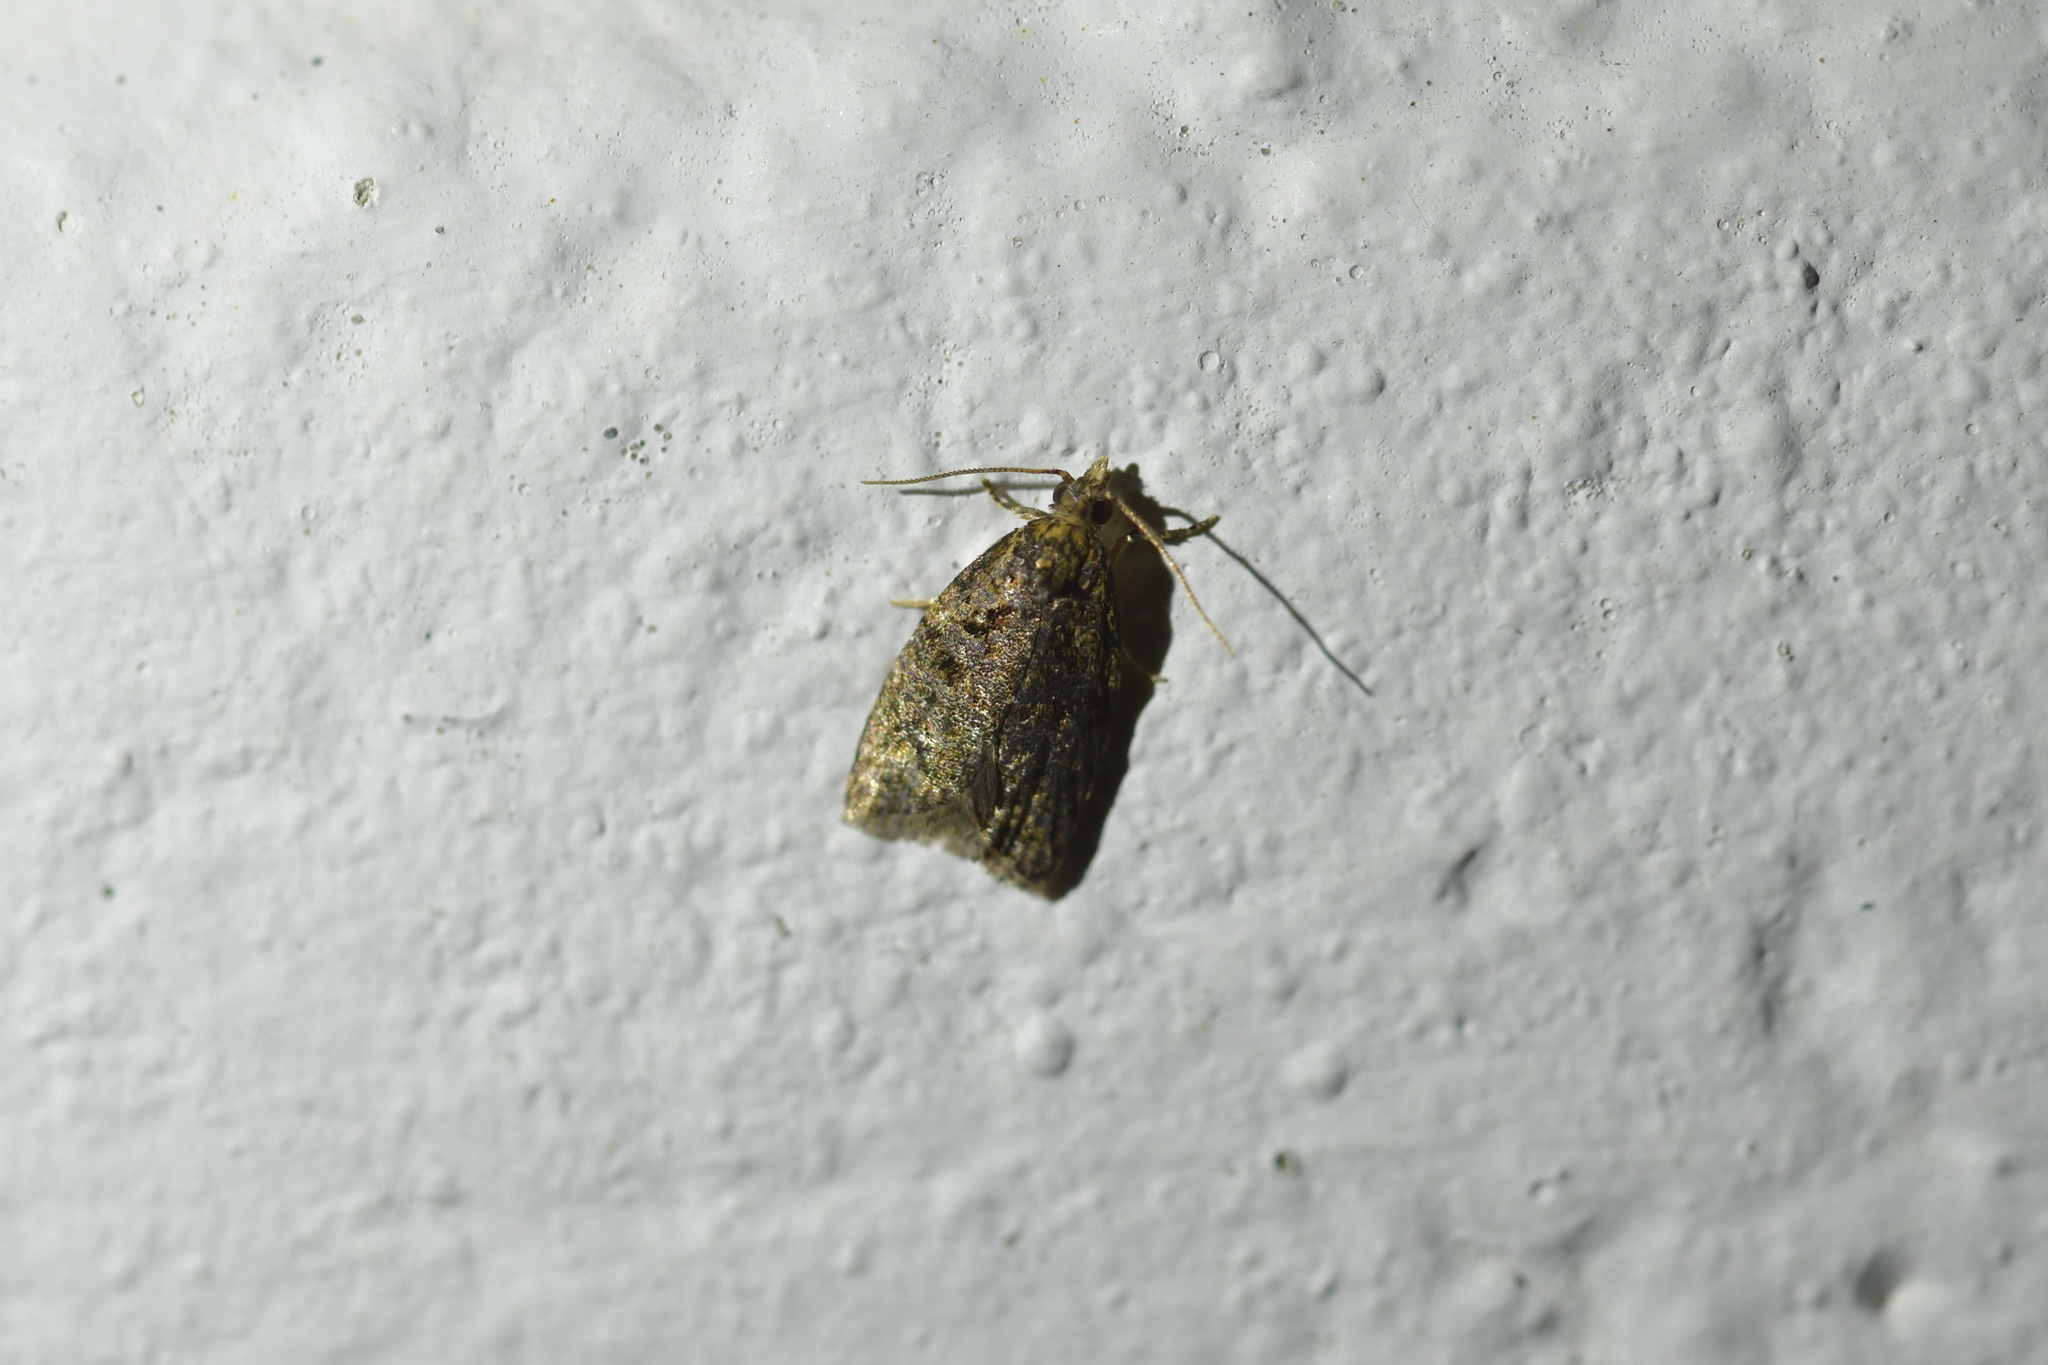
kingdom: Animalia
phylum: Arthropoda
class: Insecta
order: Lepidoptera
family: Tortricidae
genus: Capua
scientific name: Capua intractana
